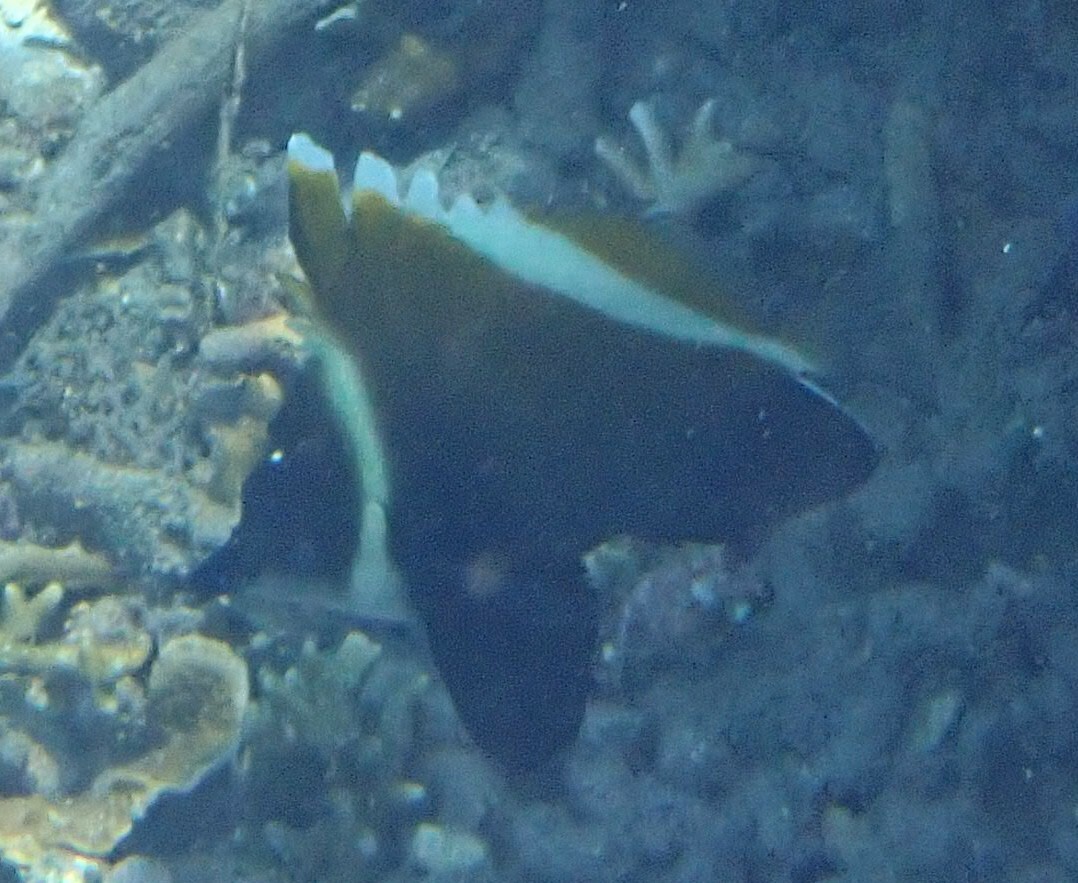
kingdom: Animalia
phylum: Chordata
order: Perciformes
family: Chaetodontidae
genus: Heniochus
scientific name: Heniochus varius
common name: Horned bannerfish
